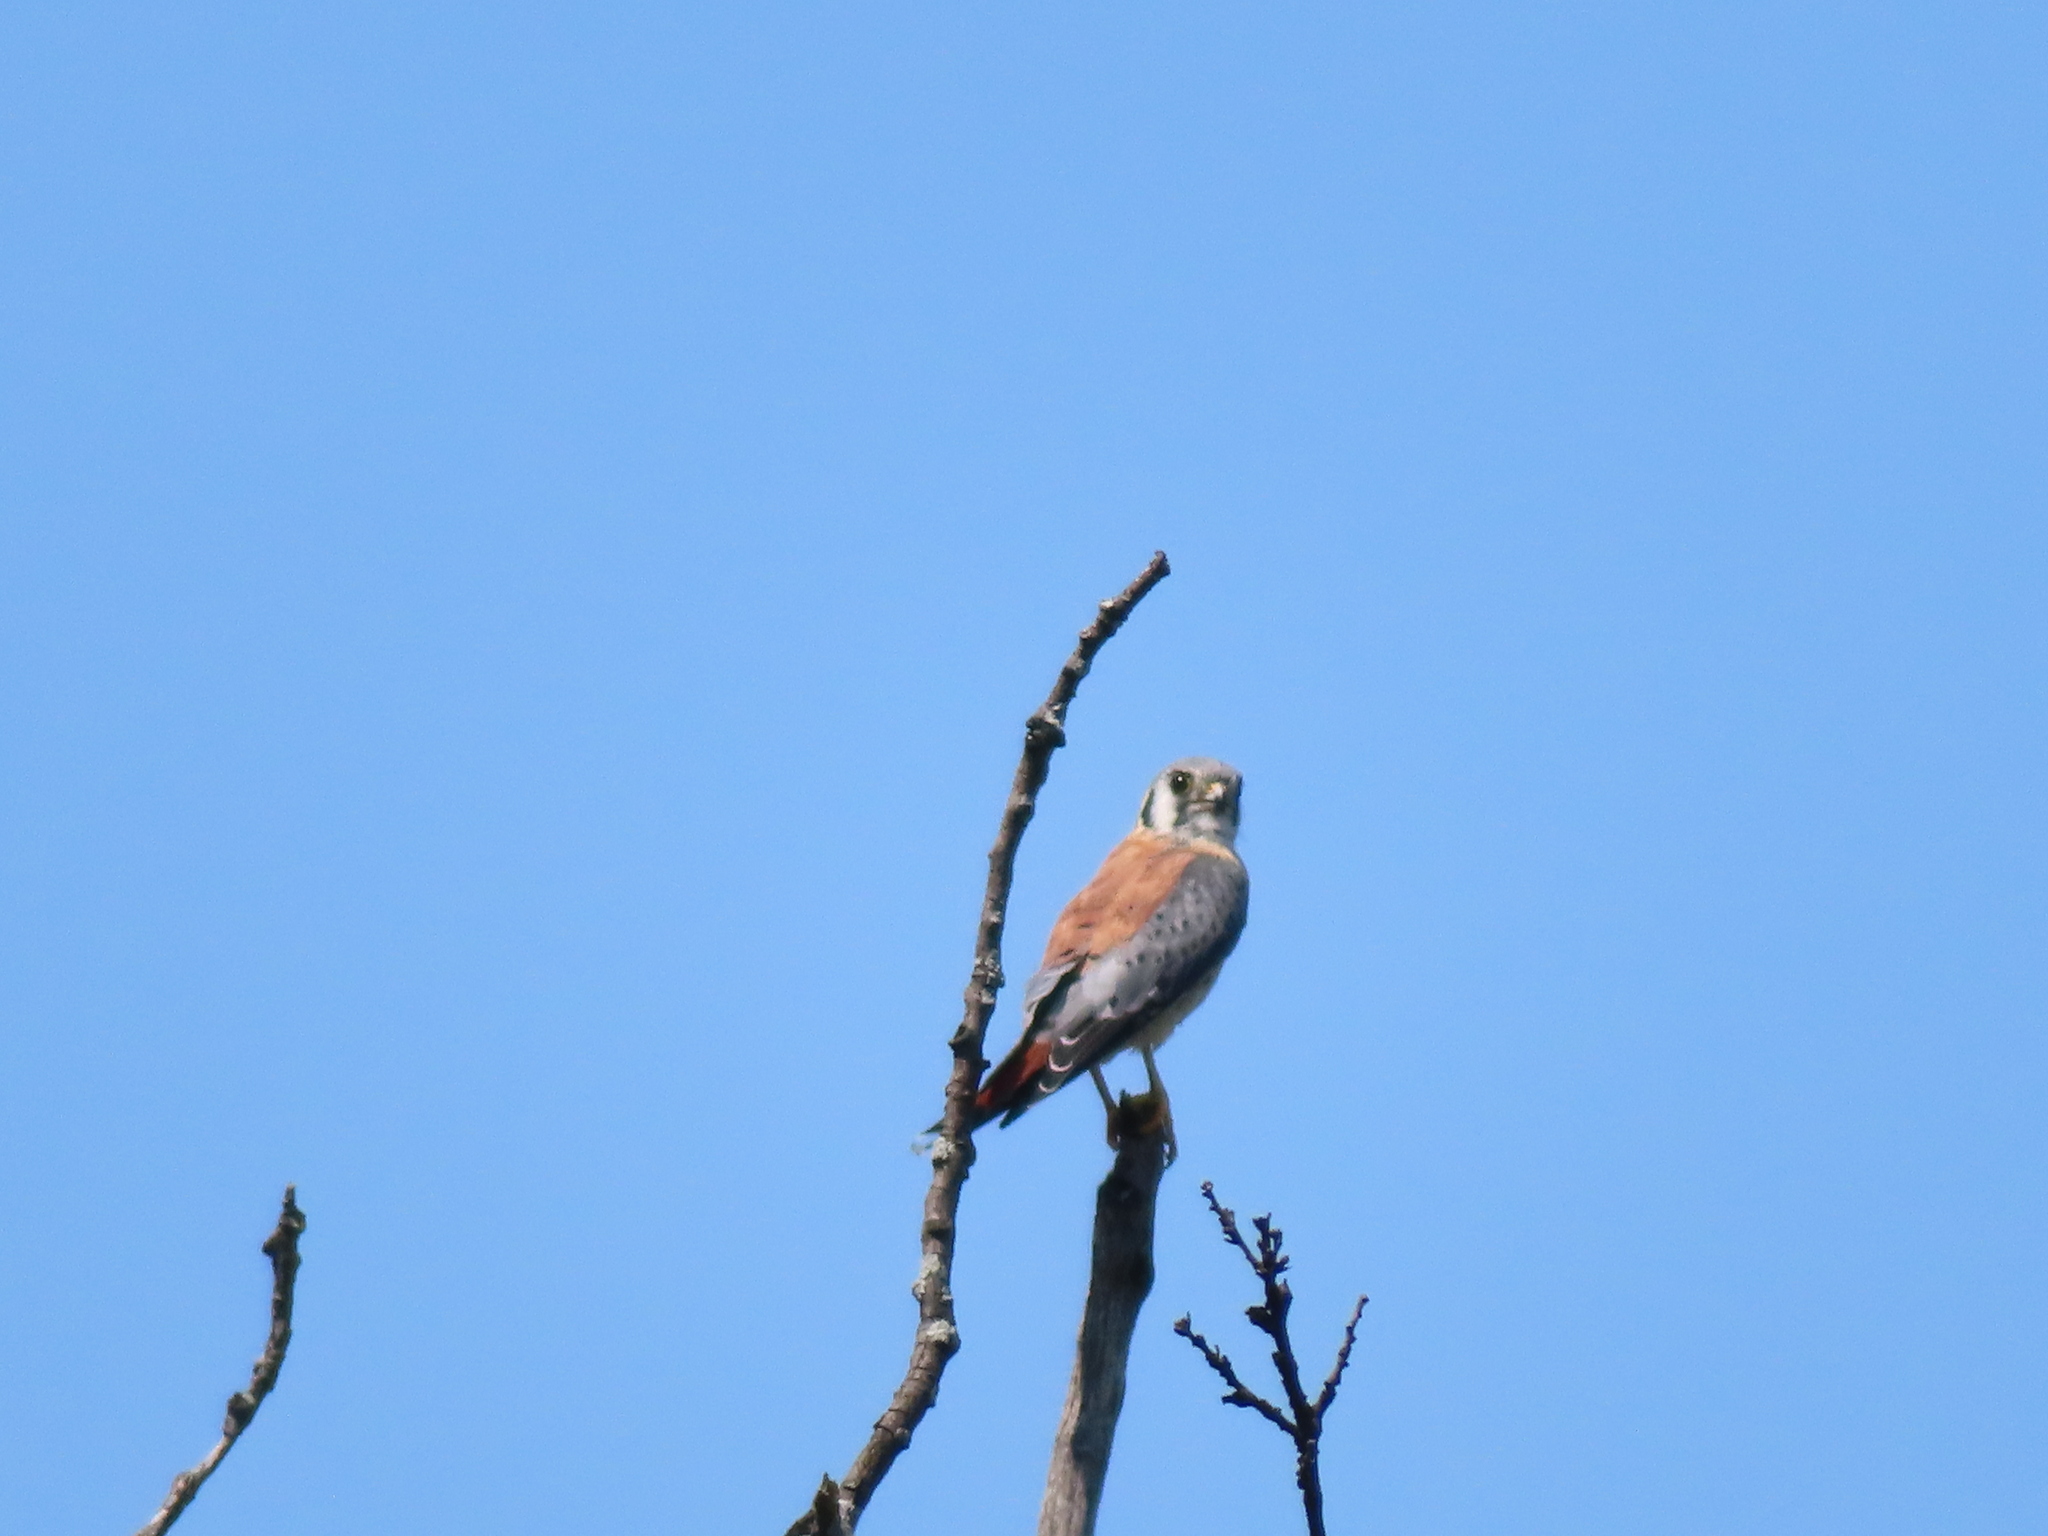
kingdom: Animalia
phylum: Chordata
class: Aves
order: Falconiformes
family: Falconidae
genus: Falco
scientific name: Falco sparverius
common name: American kestrel
